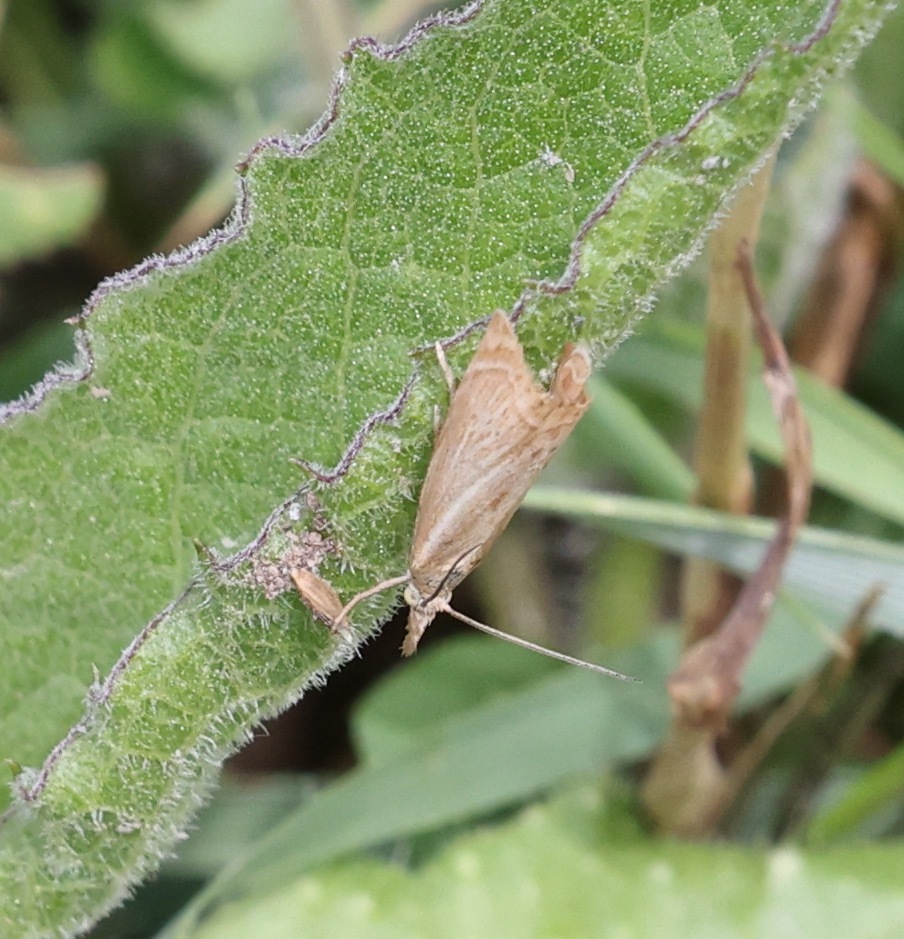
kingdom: Animalia
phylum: Arthropoda
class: Insecta
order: Lepidoptera
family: Crambidae
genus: Chrysoteuchia
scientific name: Chrysoteuchia culmella
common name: Garden grass-veneer
